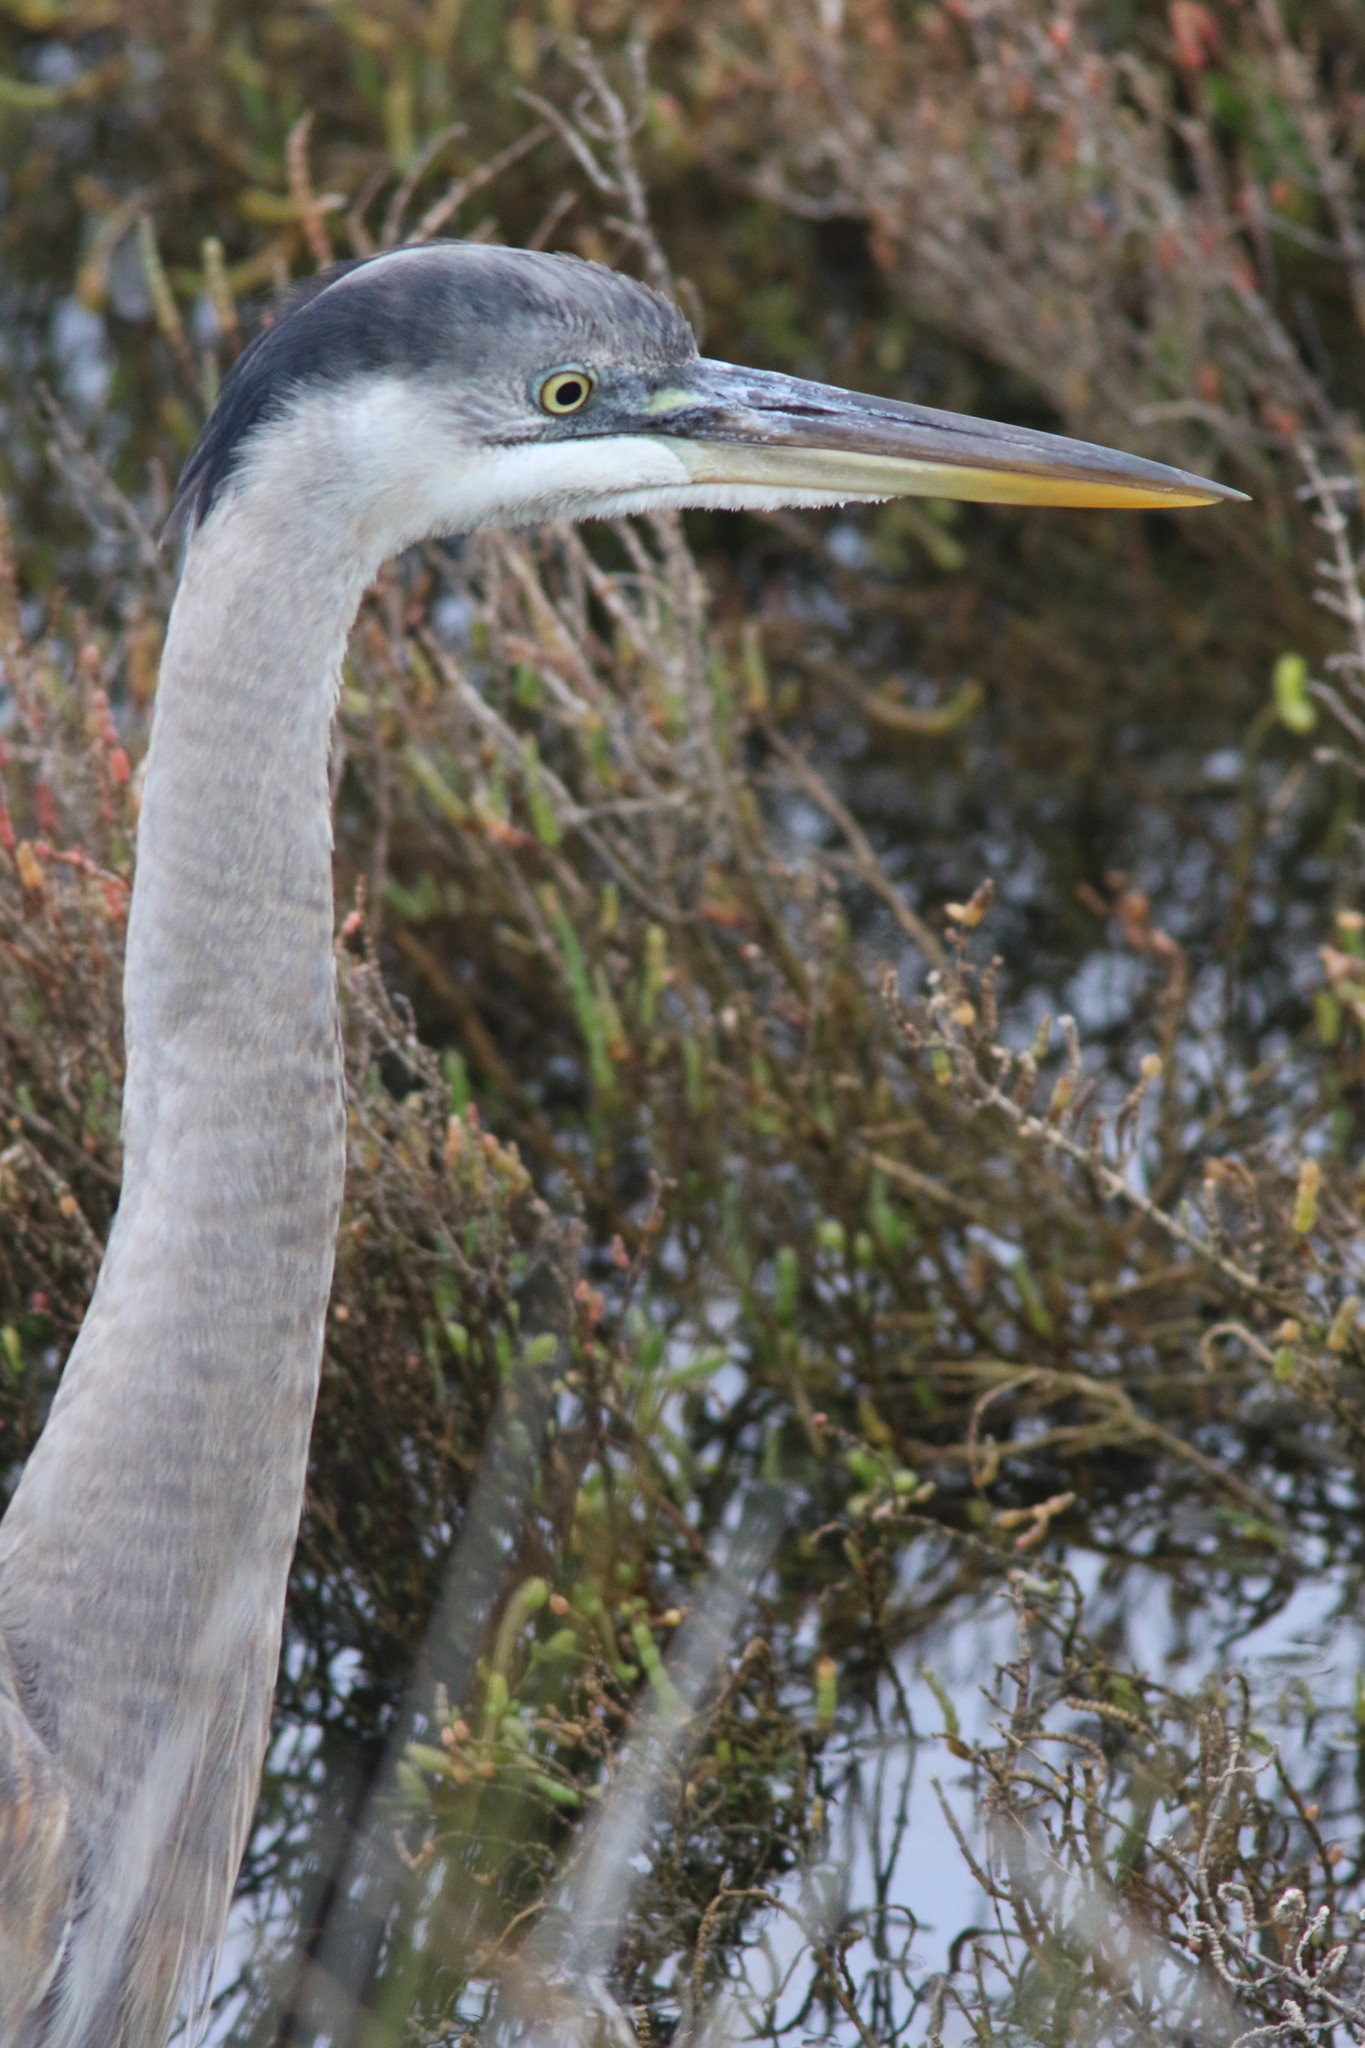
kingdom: Animalia
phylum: Chordata
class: Aves
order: Pelecaniformes
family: Ardeidae
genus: Ardea
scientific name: Ardea herodias
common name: Great blue heron
